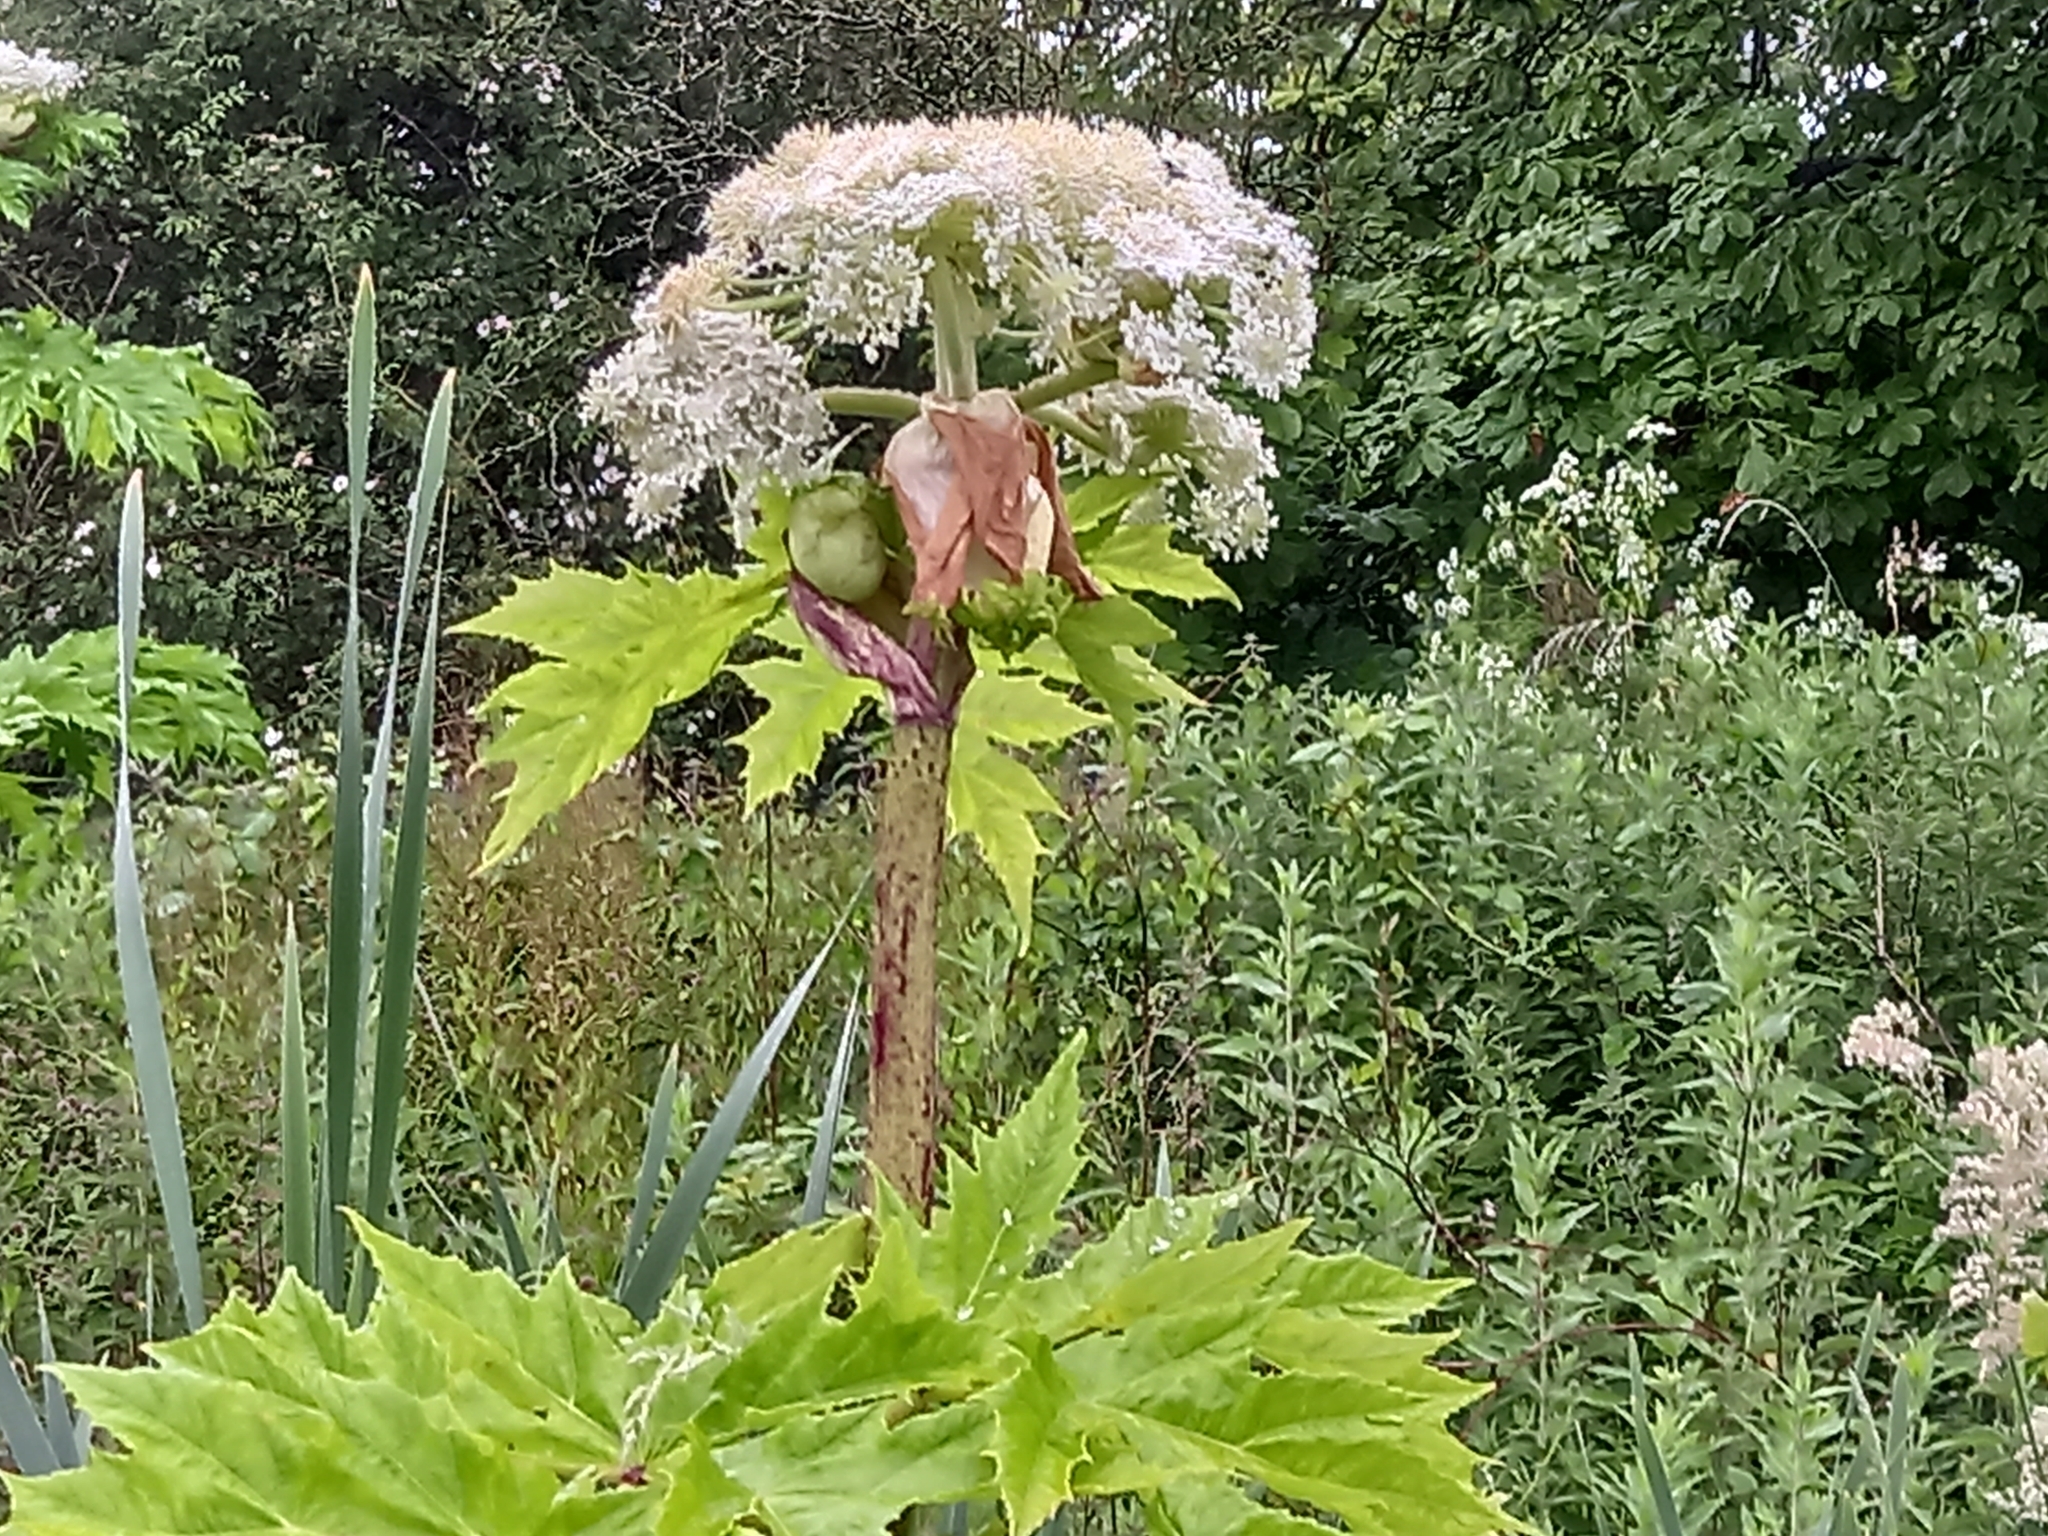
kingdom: Plantae
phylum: Tracheophyta
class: Magnoliopsida
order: Apiales
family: Apiaceae
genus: Heracleum
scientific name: Heracleum mantegazzianum
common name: Giant hogweed
